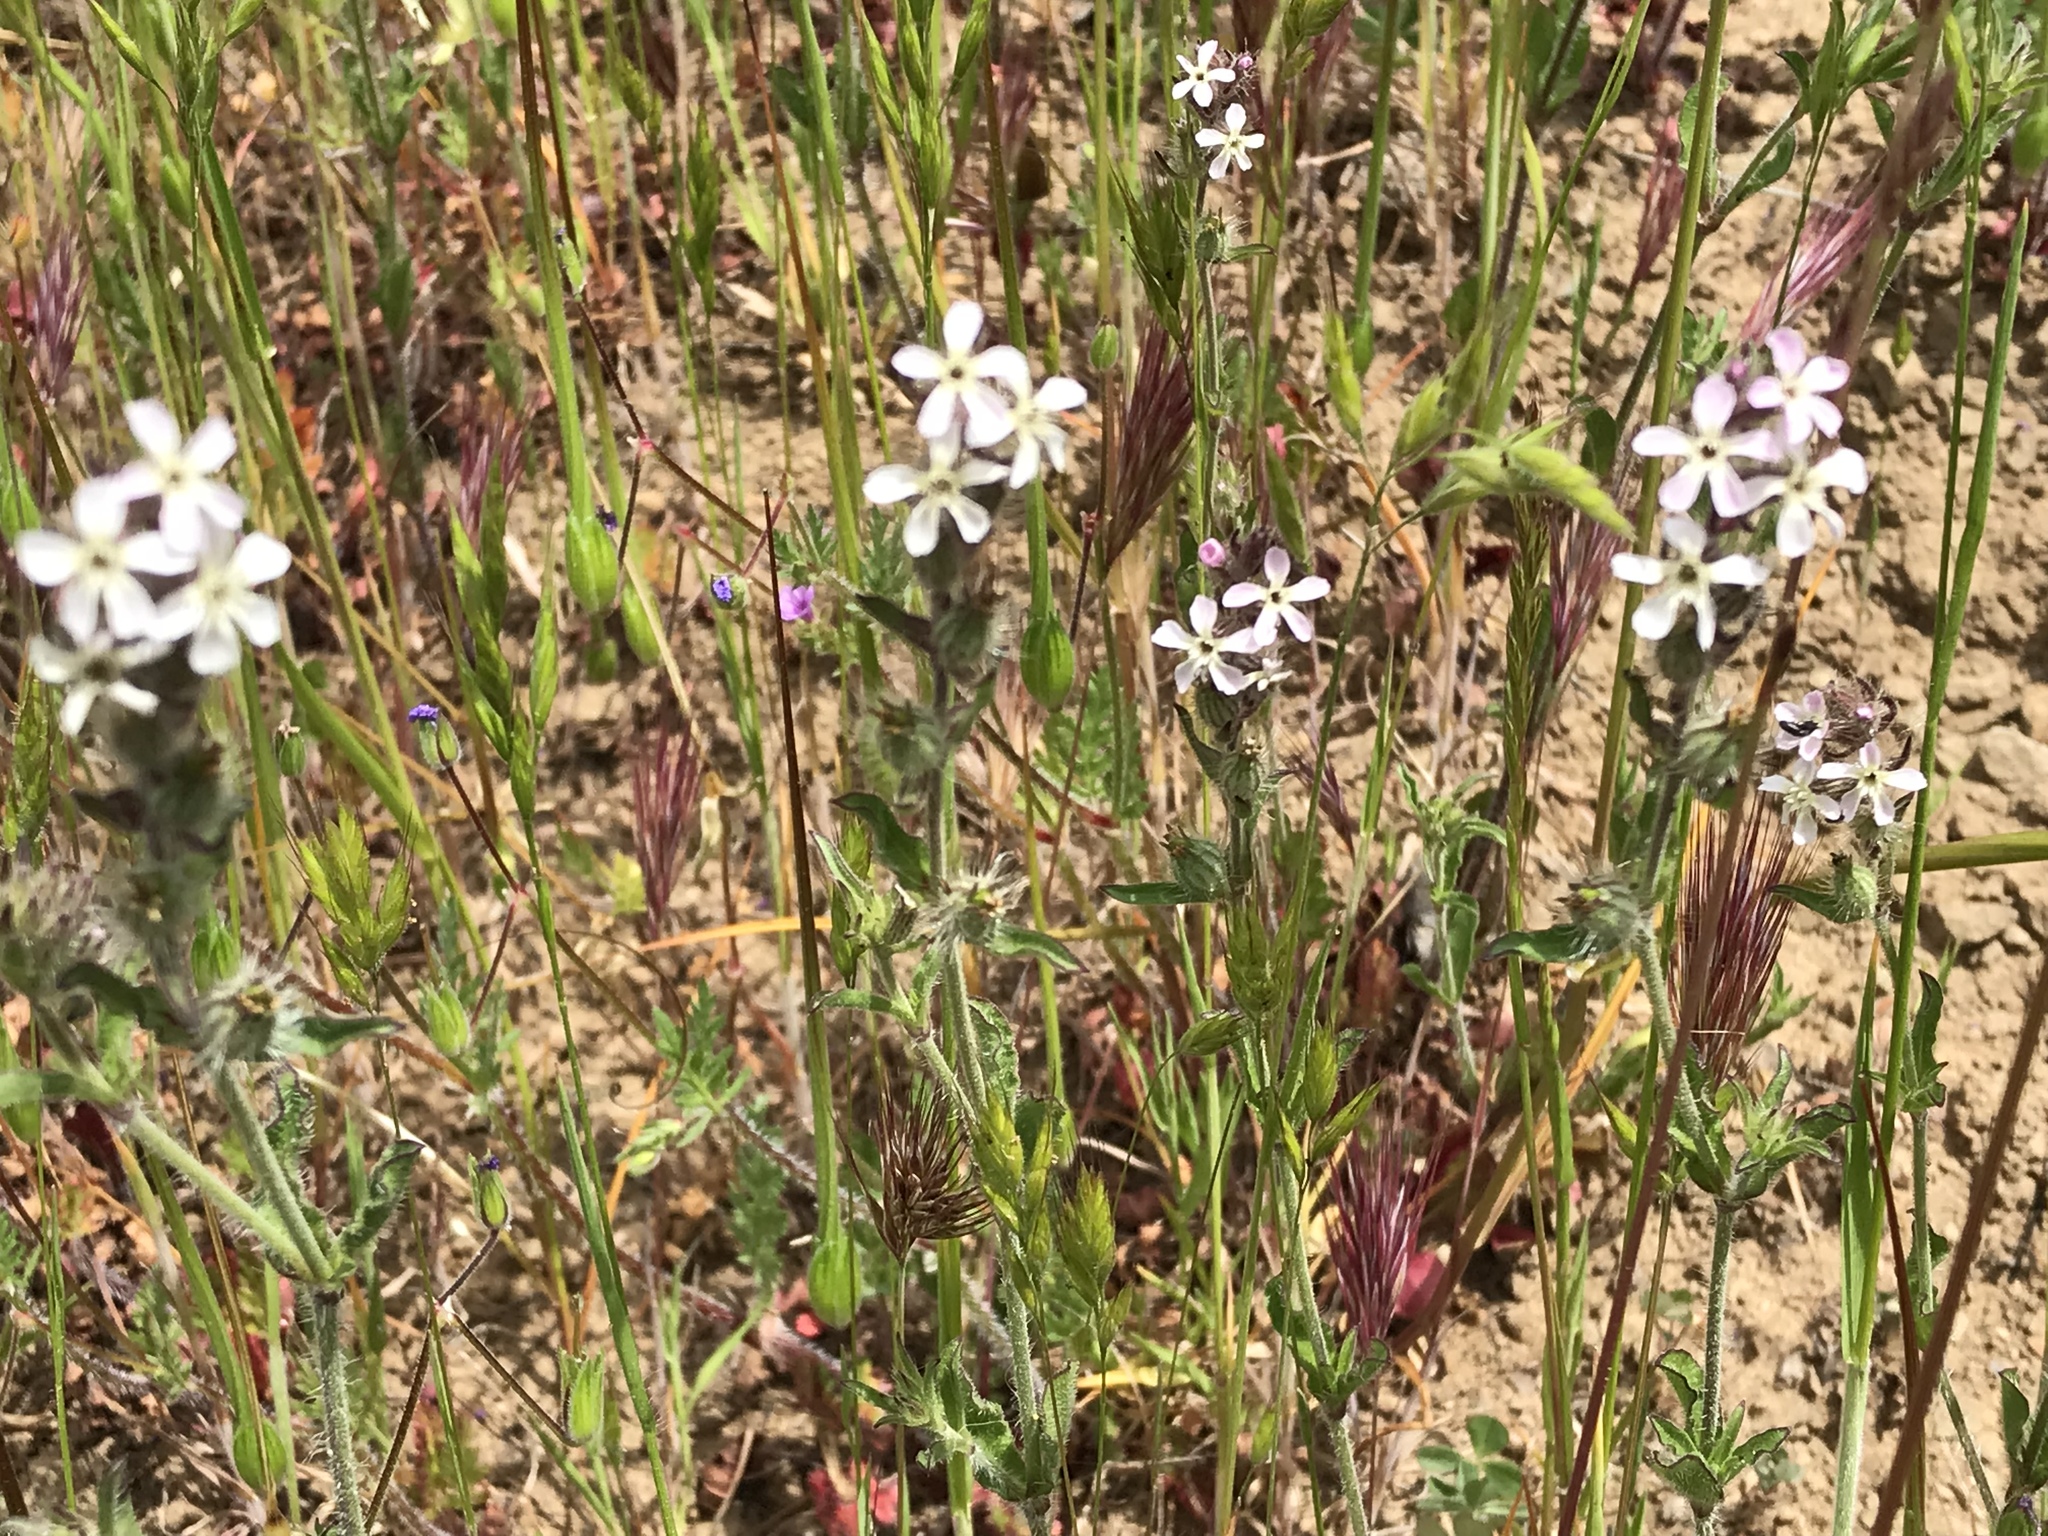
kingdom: Plantae
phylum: Tracheophyta
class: Magnoliopsida
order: Caryophyllales
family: Caryophyllaceae
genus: Silene
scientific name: Silene gallica
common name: Small-flowered catchfly
